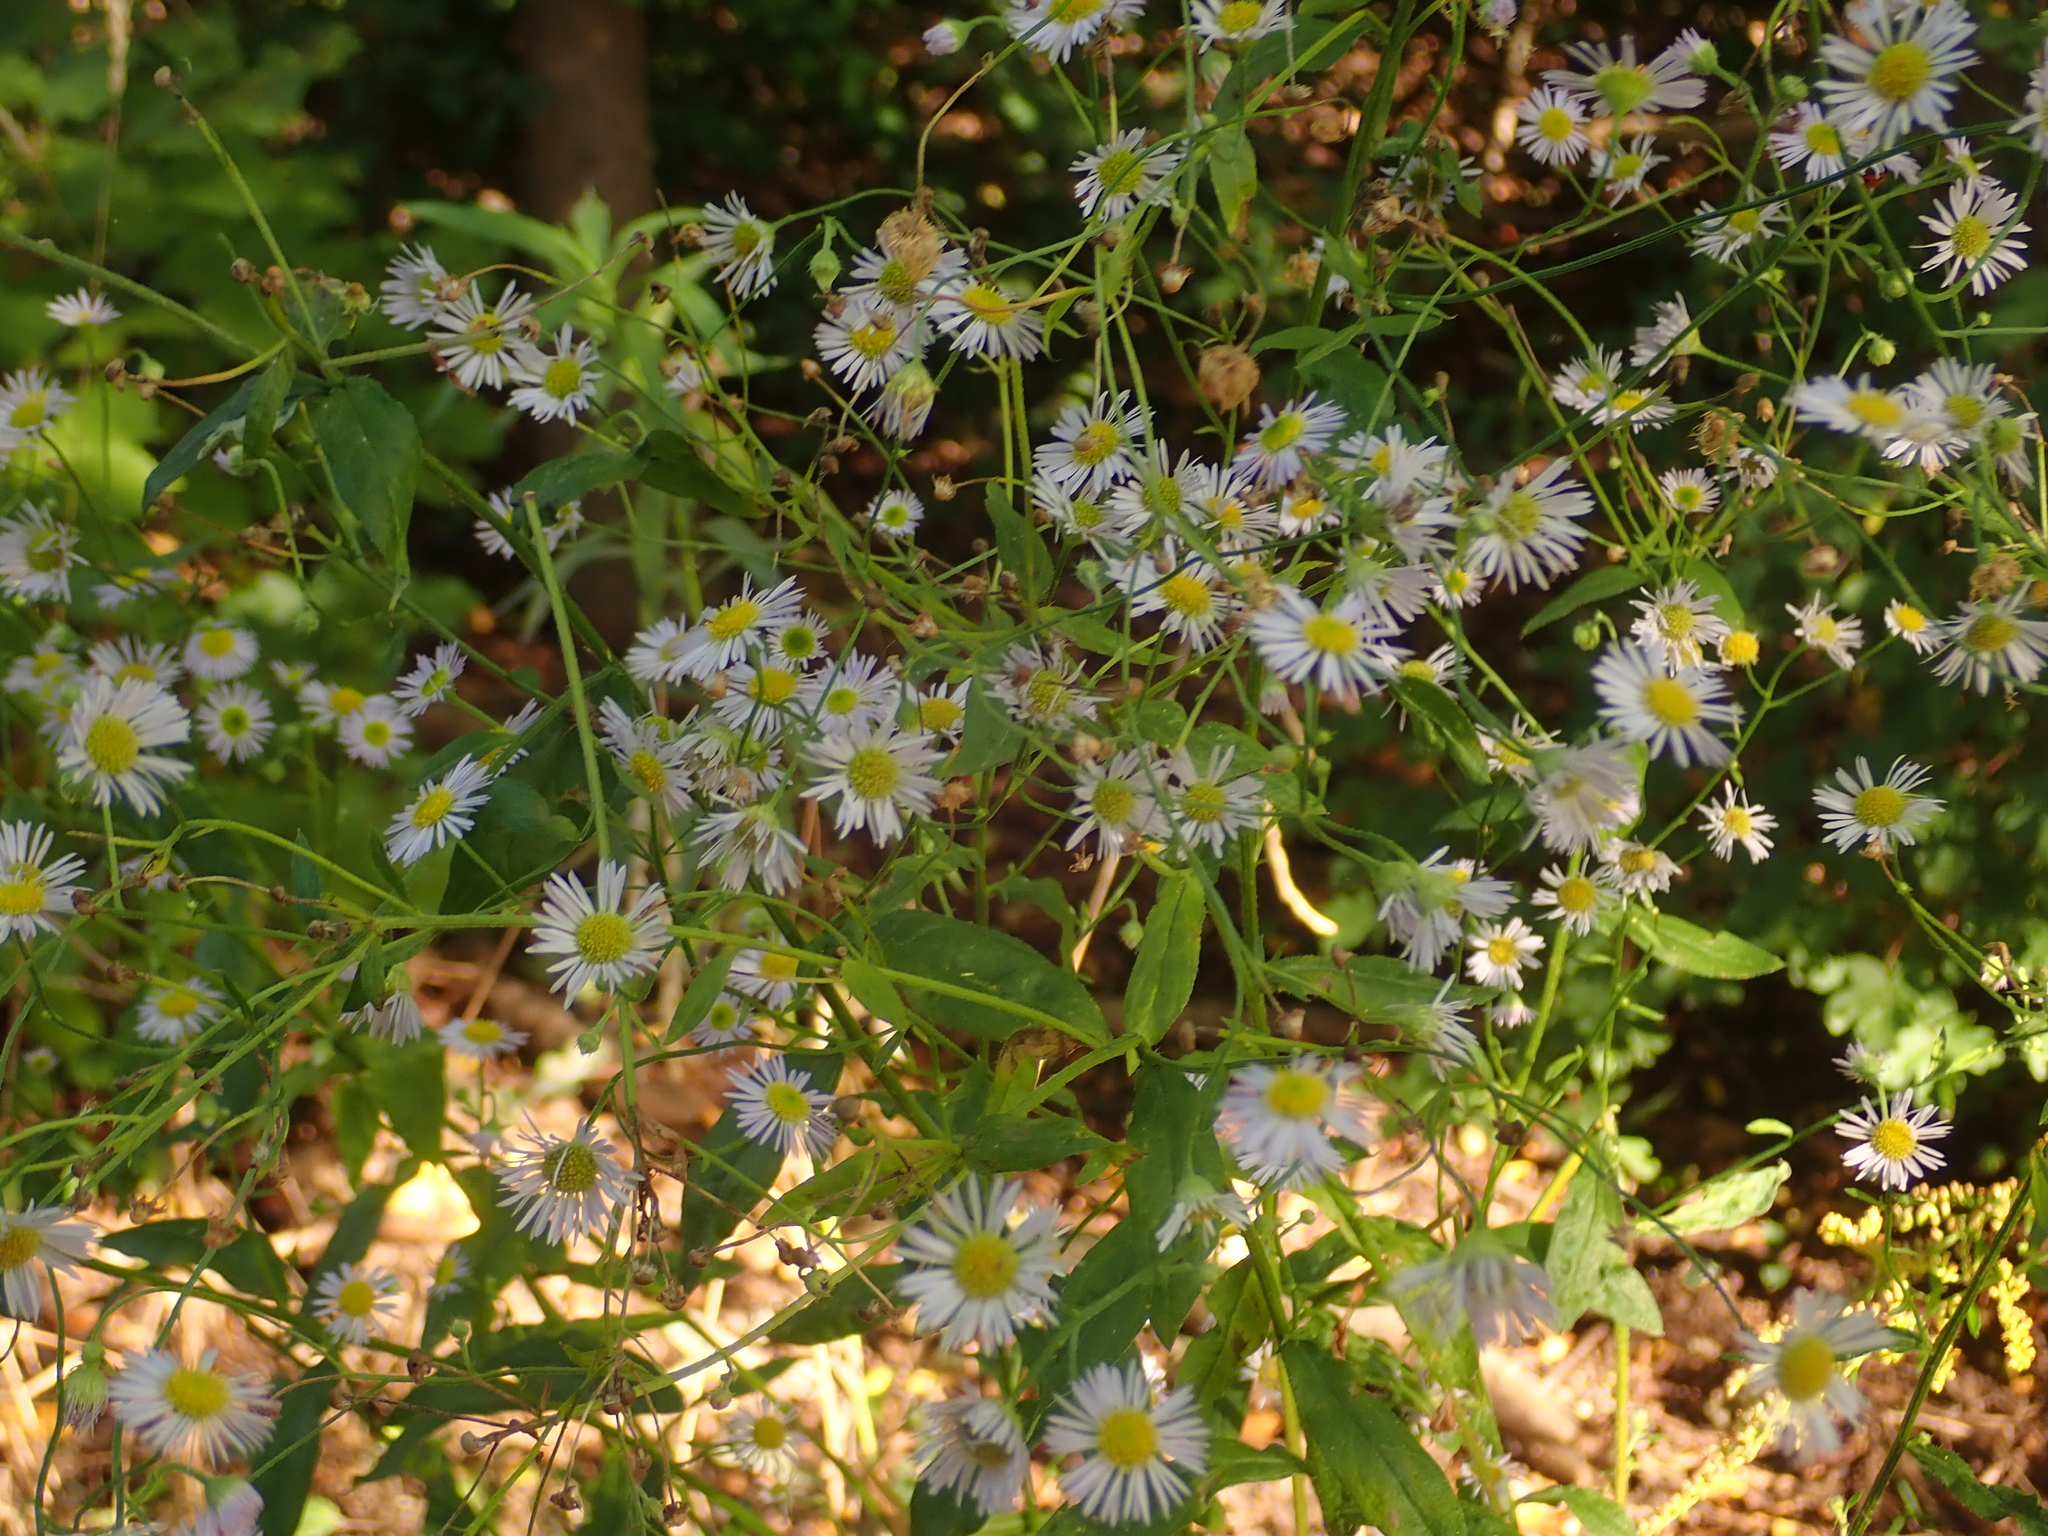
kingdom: Plantae
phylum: Tracheophyta
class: Magnoliopsida
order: Asterales
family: Asteraceae
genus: Erigeron
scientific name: Erigeron annuus
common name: Tall fleabane
